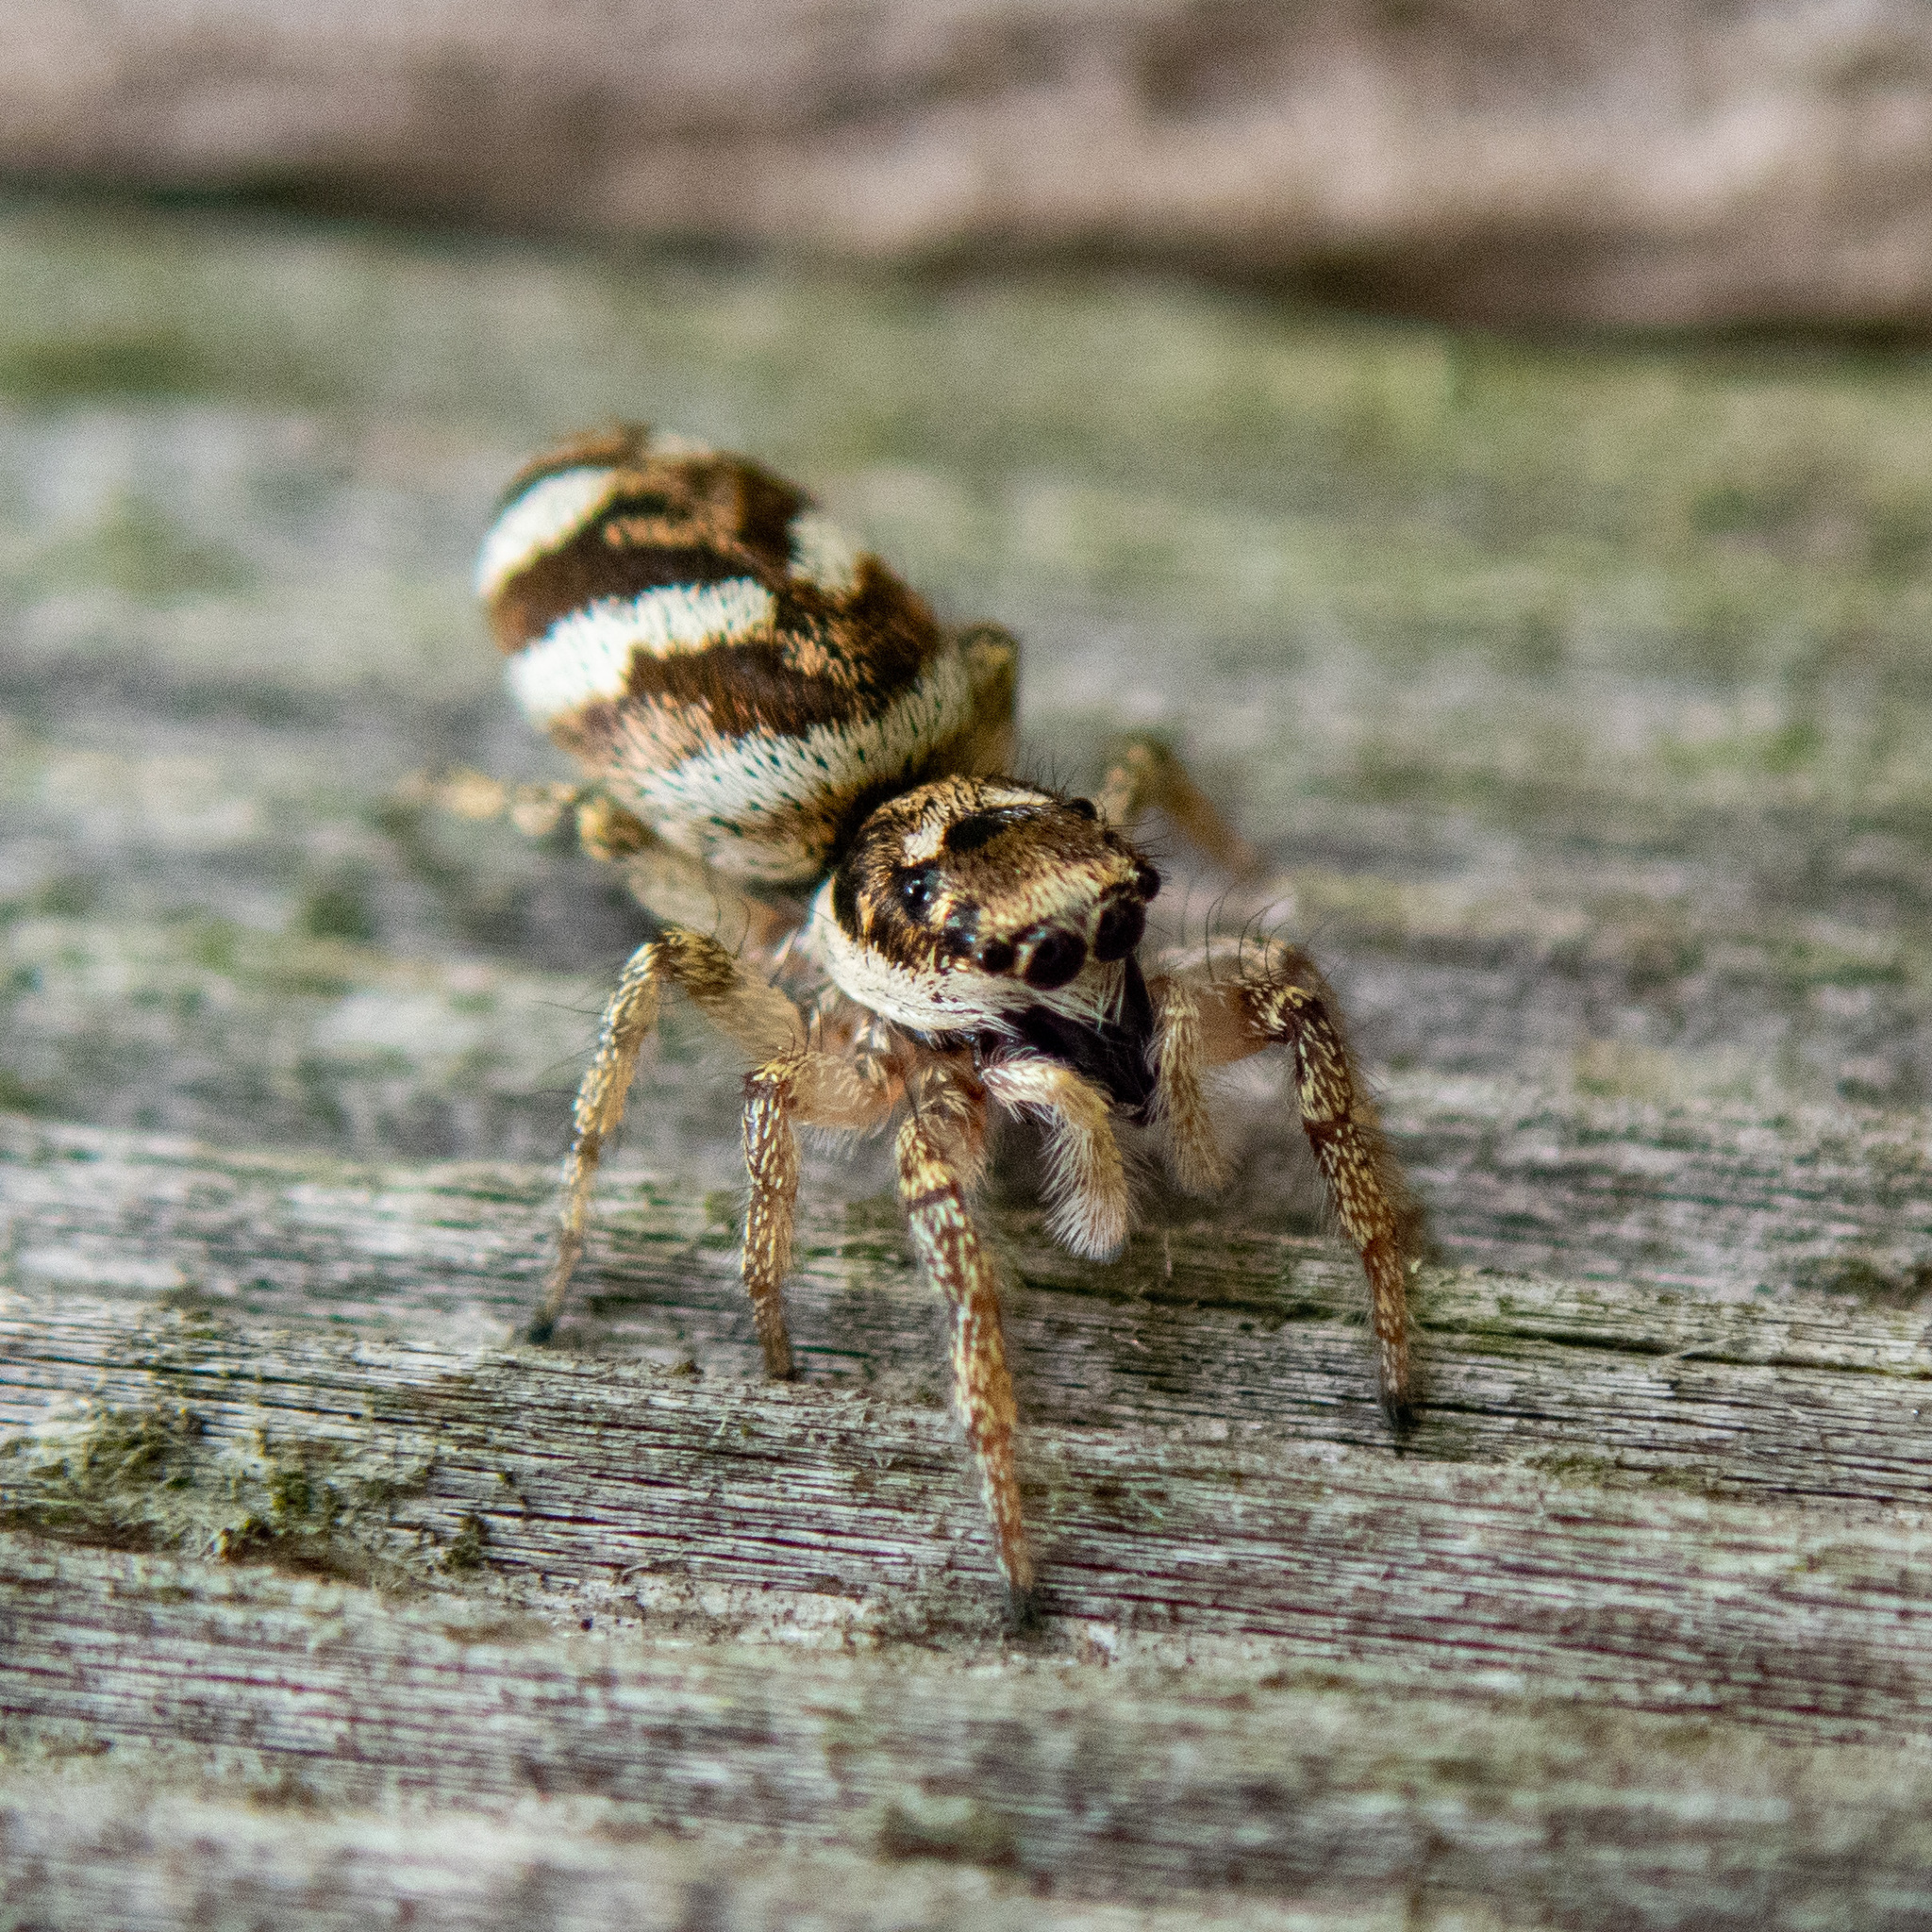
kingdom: Animalia
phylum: Arthropoda
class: Arachnida
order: Araneae
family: Salticidae
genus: Salticus
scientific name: Salticus scenicus
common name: Zebra jumper
